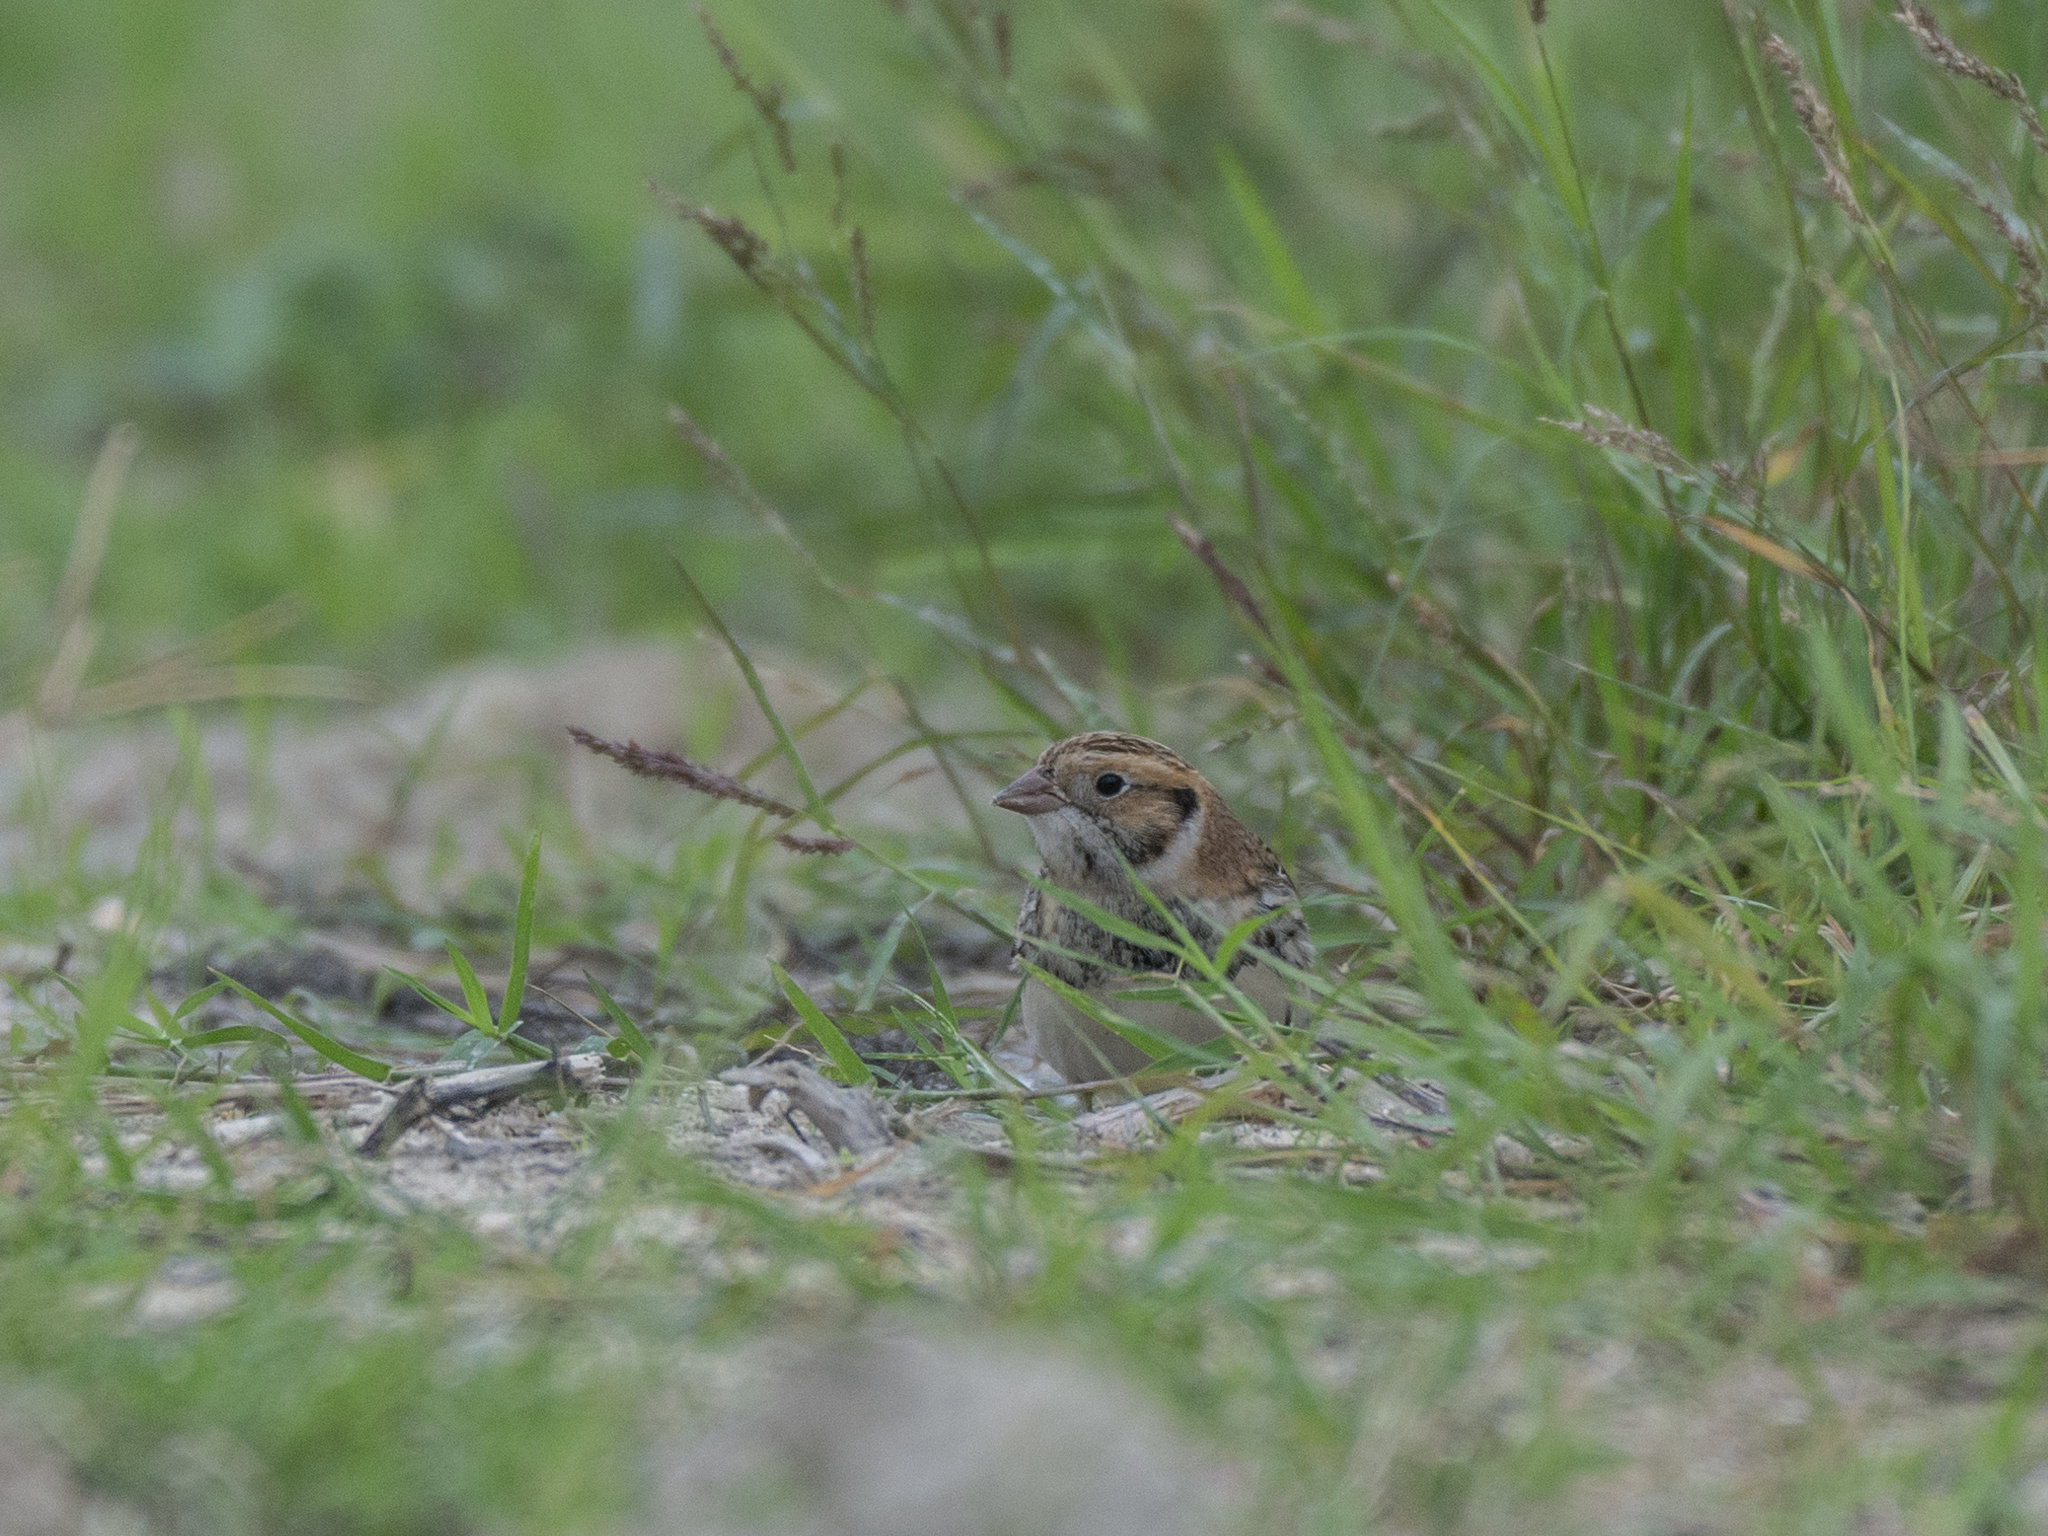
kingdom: Animalia
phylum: Chordata
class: Aves
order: Passeriformes
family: Calcariidae
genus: Calcarius
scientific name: Calcarius lapponicus
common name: Lapland longspur
